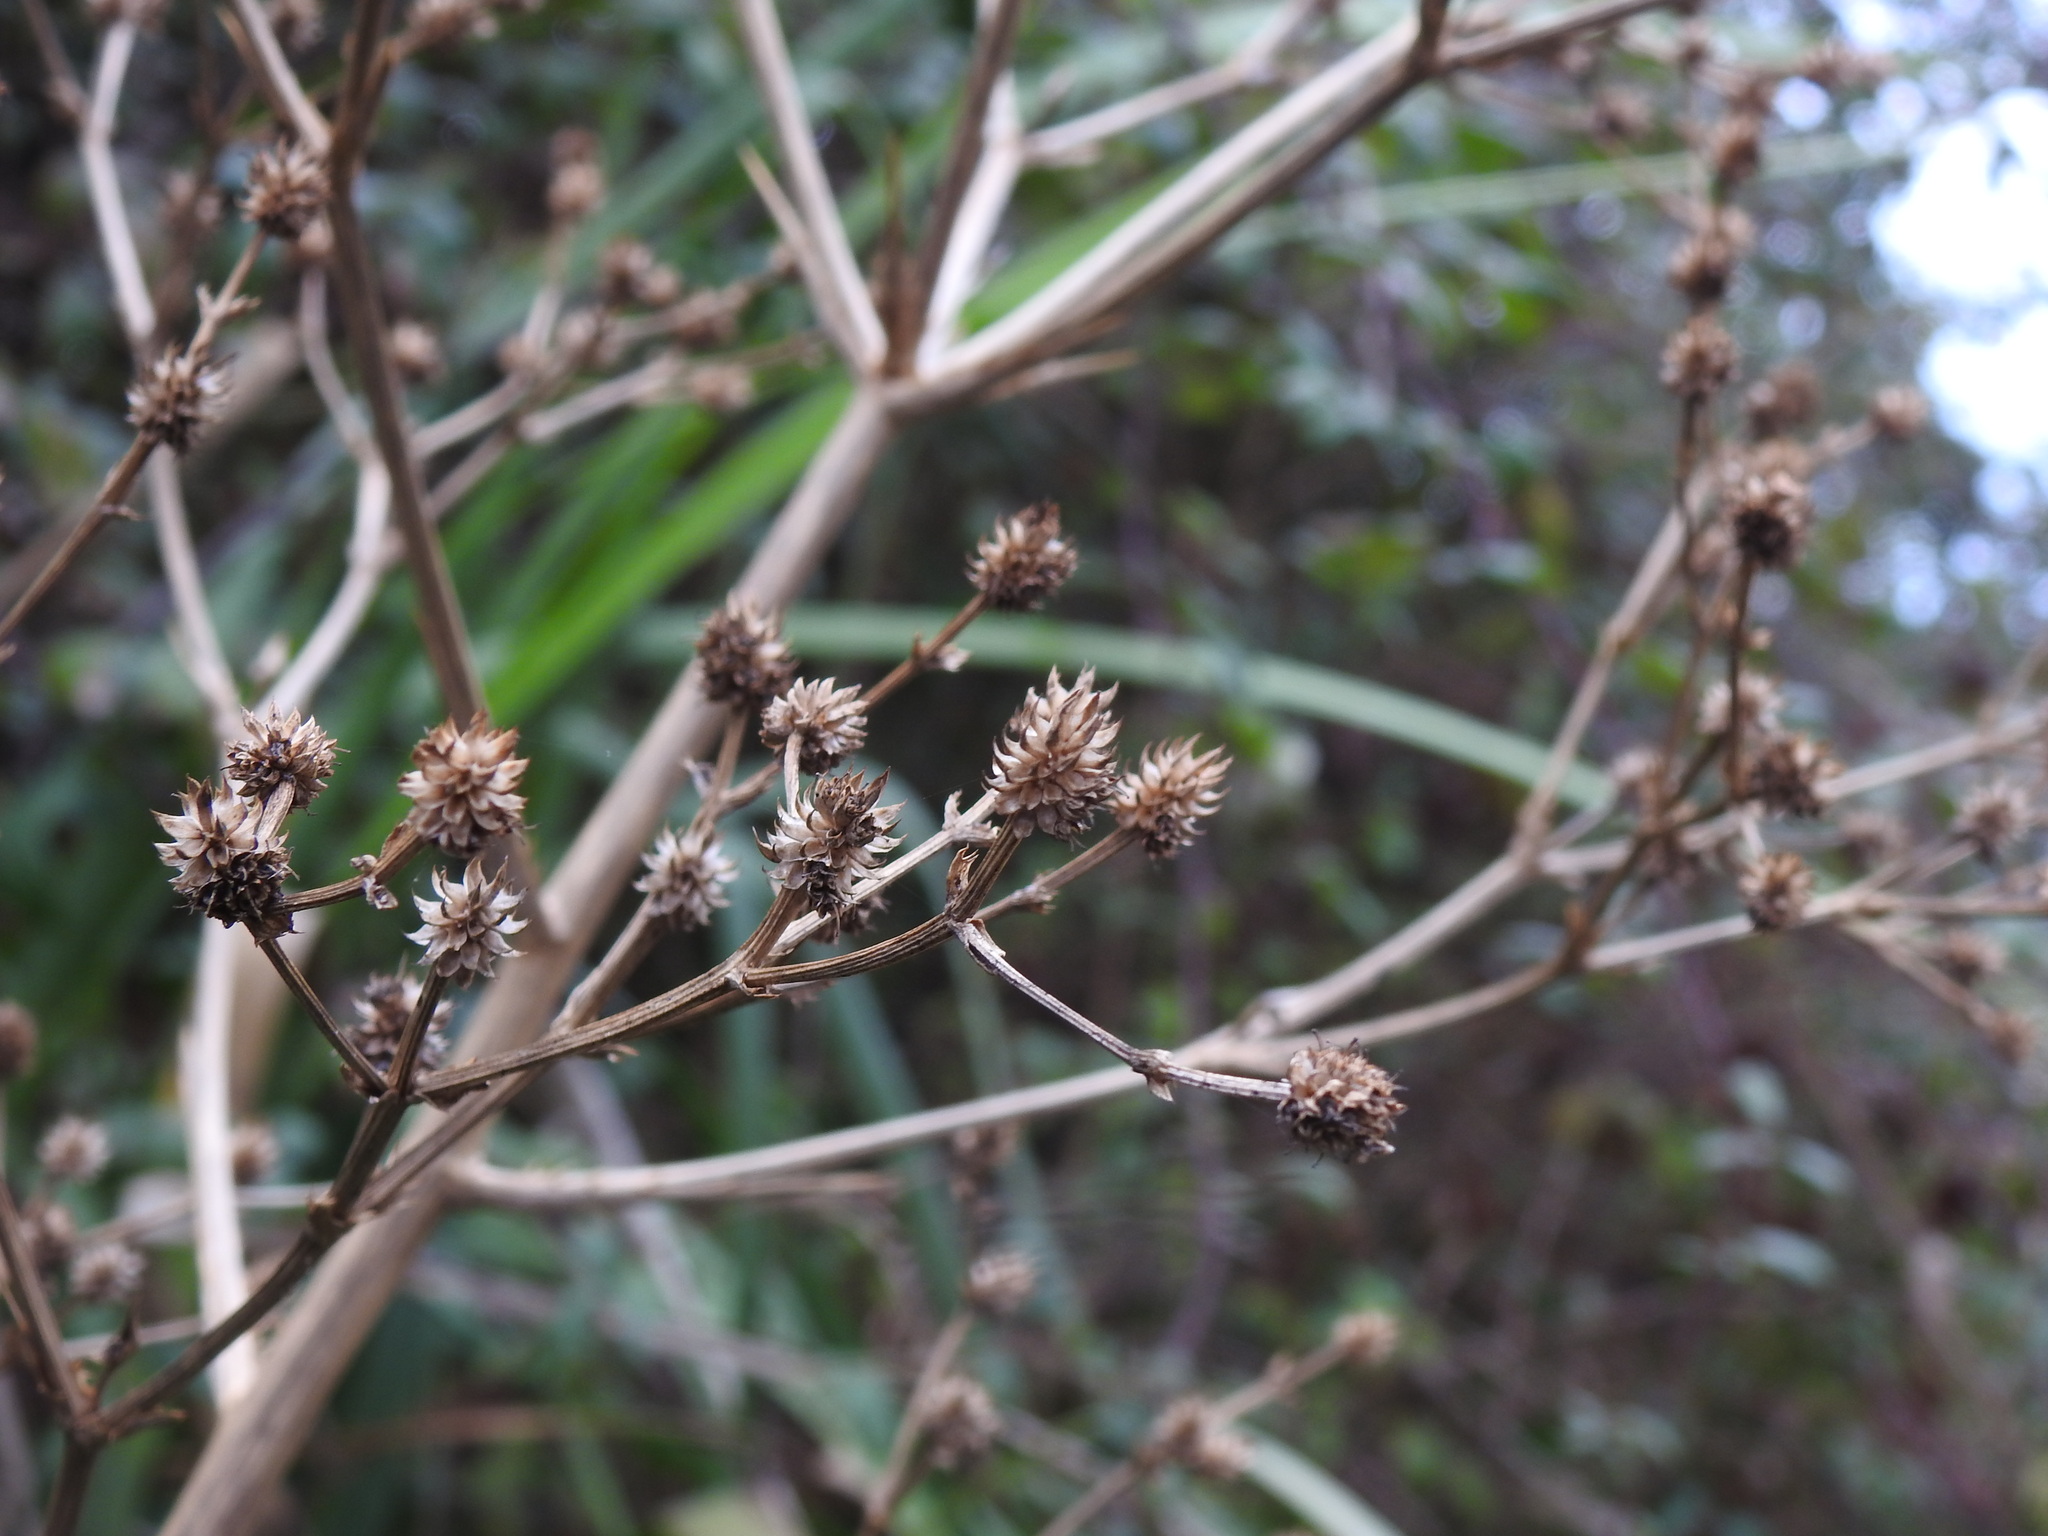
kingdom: Plantae
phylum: Tracheophyta
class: Magnoliopsida
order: Apiales
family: Apiaceae
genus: Eryngium
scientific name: Eryngium pandanifolium
